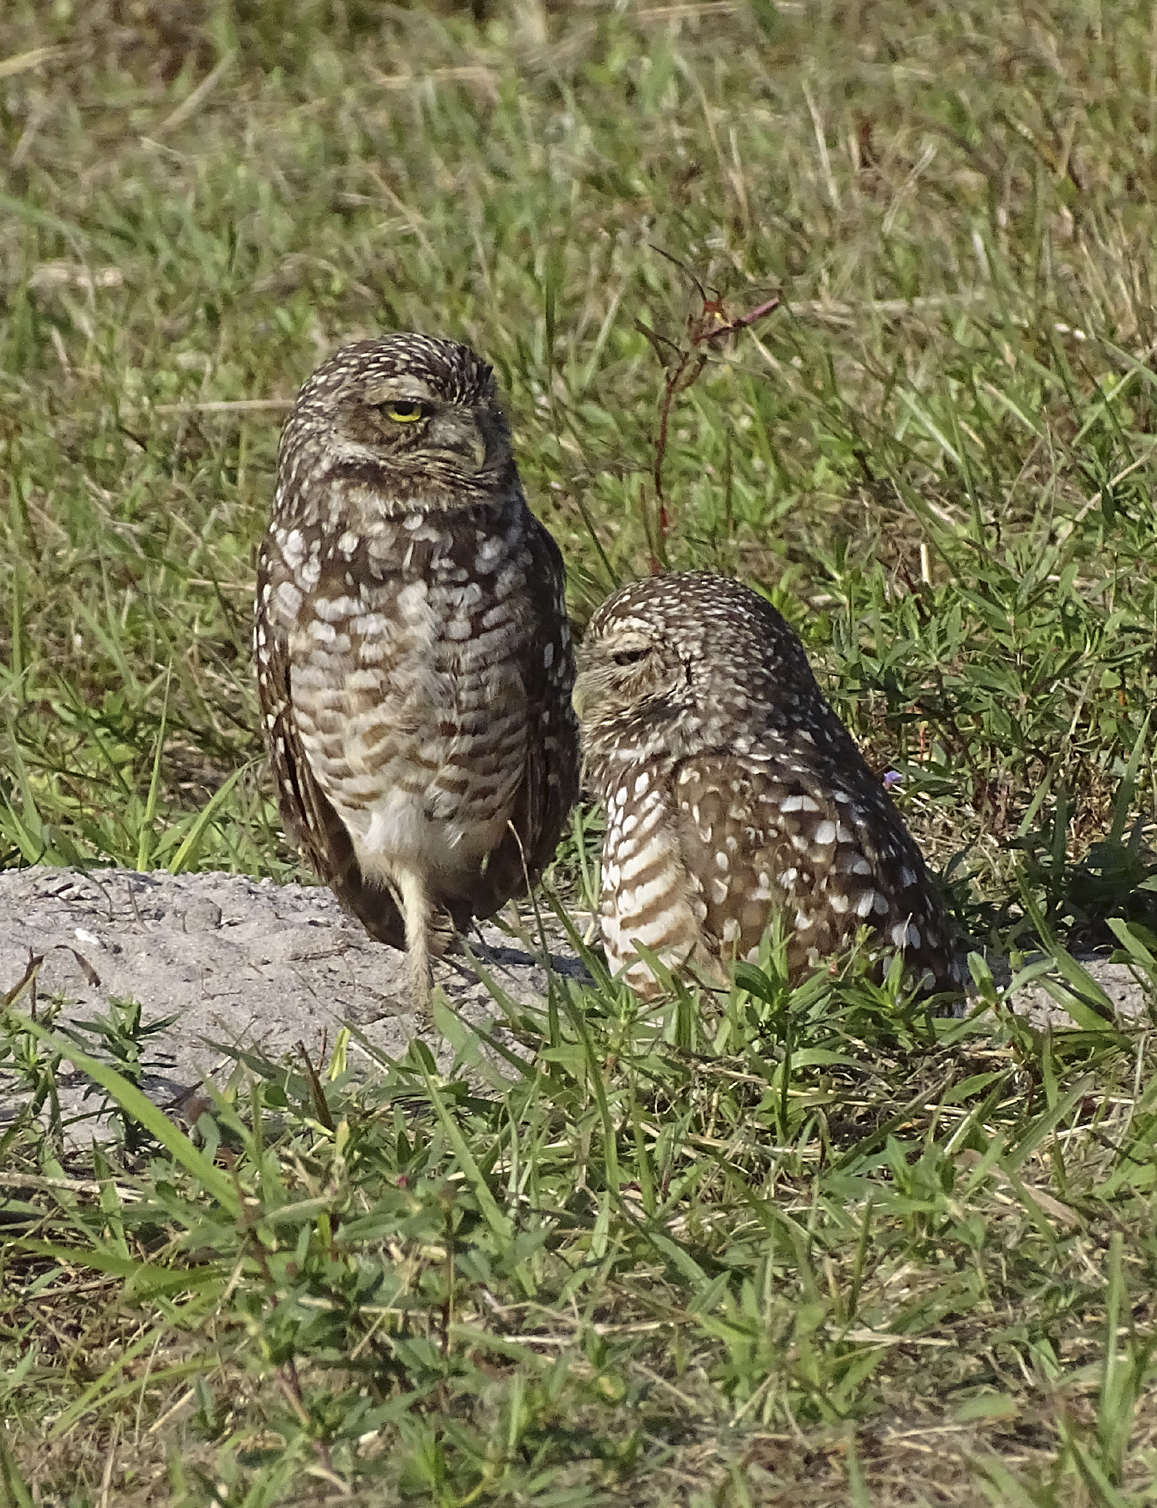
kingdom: Animalia
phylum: Chordata
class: Aves
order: Strigiformes
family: Strigidae
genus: Athene
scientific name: Athene cunicularia
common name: Burrowing owl
